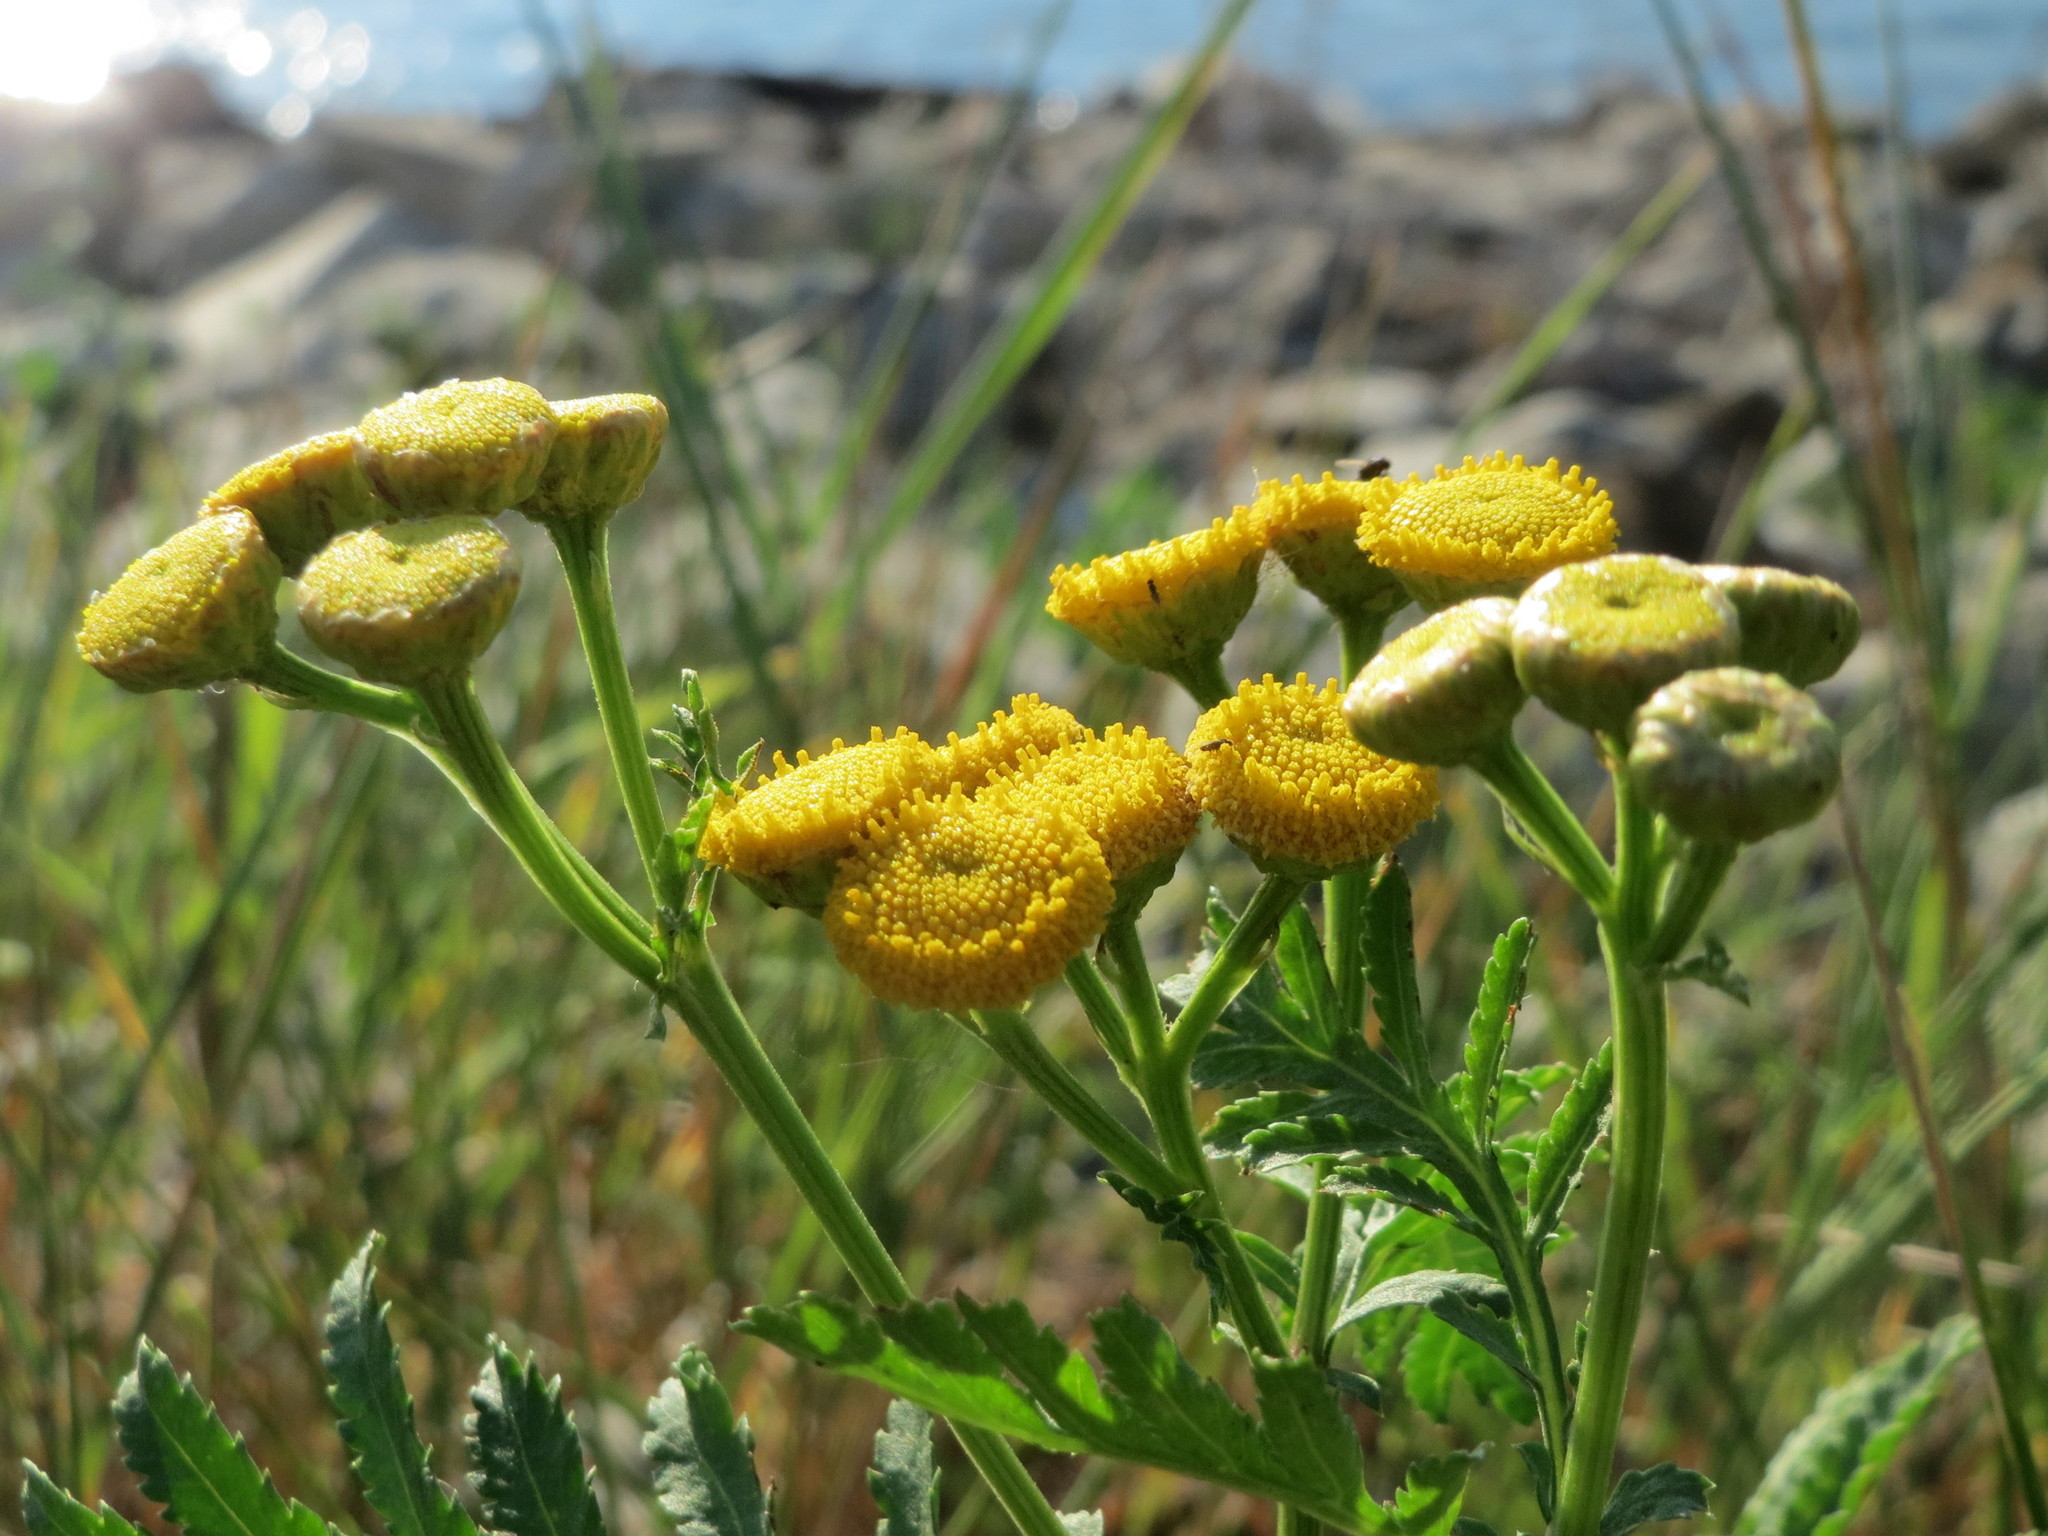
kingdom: Plantae
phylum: Tracheophyta
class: Magnoliopsida
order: Asterales
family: Asteraceae
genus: Tanacetum
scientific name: Tanacetum vulgare
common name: Common tansy
